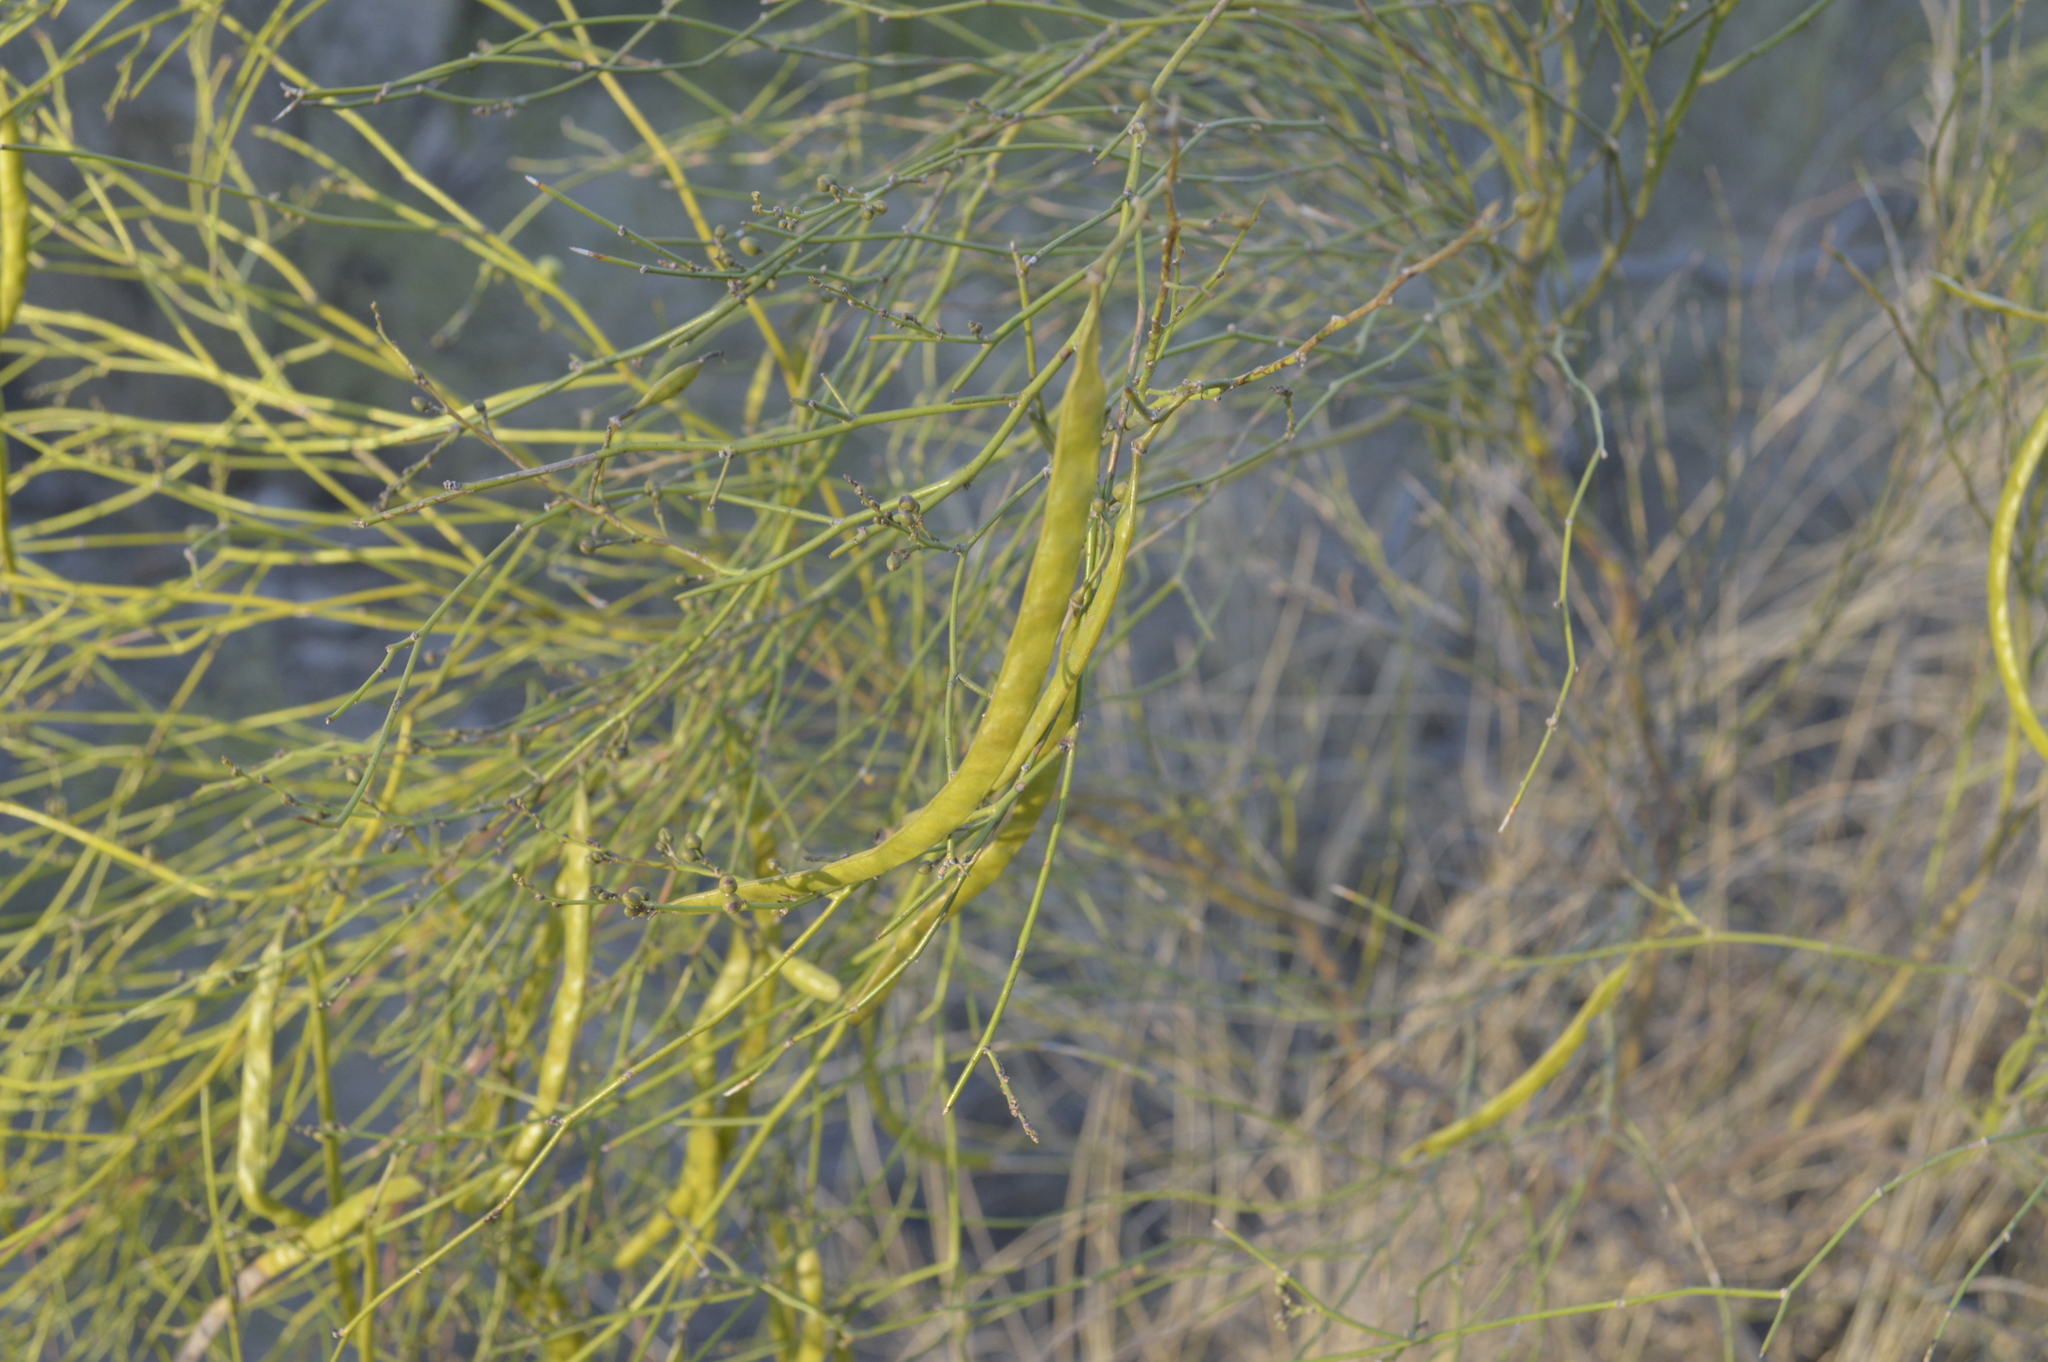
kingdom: Plantae
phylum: Tracheophyta
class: Magnoliopsida
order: Fabales
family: Fabaceae
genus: Senna
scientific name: Senna pachyrrhiza
